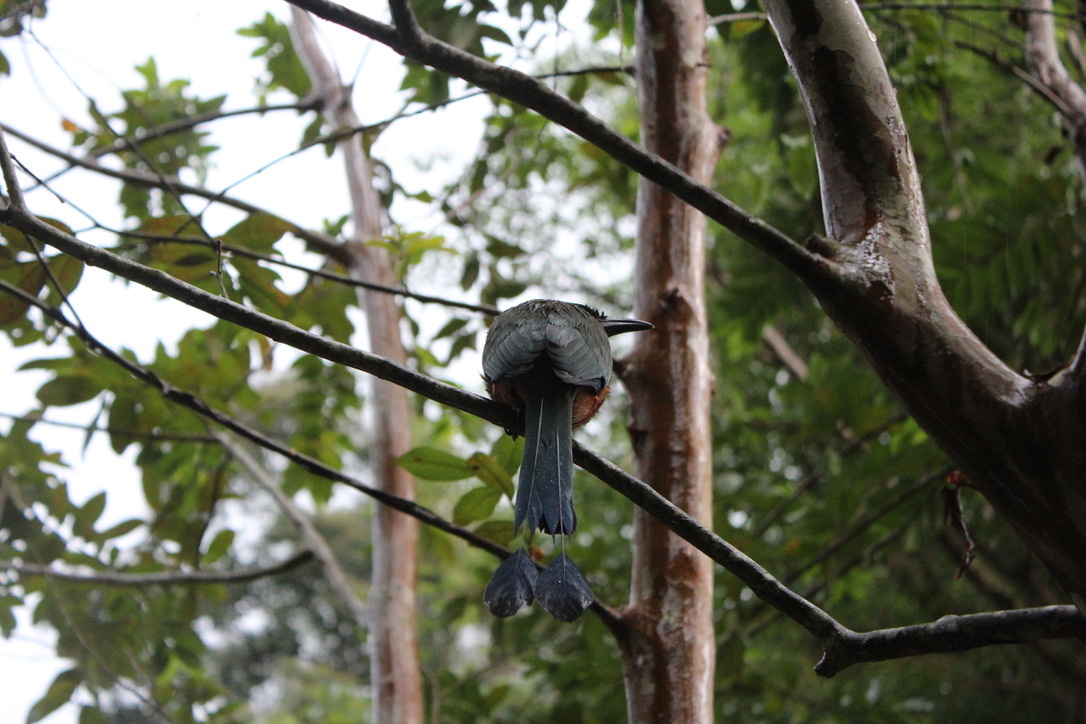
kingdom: Animalia
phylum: Chordata
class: Aves
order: Coraciiformes
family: Momotidae
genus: Momotus
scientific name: Momotus bahamensis
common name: Trinidad motmot
